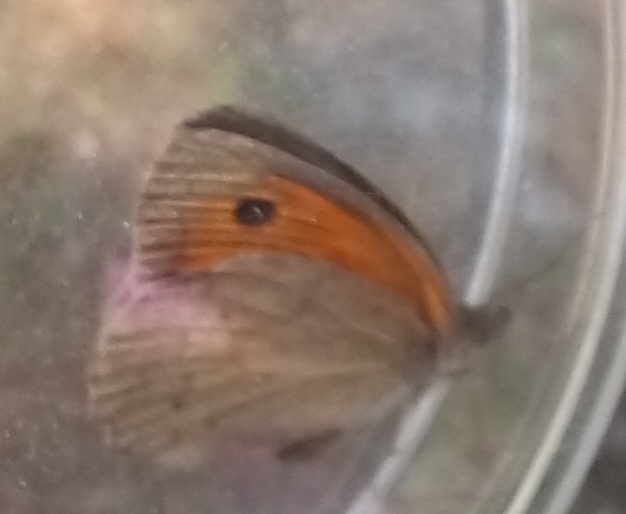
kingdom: Animalia
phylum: Arthropoda
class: Insecta
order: Lepidoptera
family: Nymphalidae
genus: Maniola
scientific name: Maniola jurtina
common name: Meadow brown
